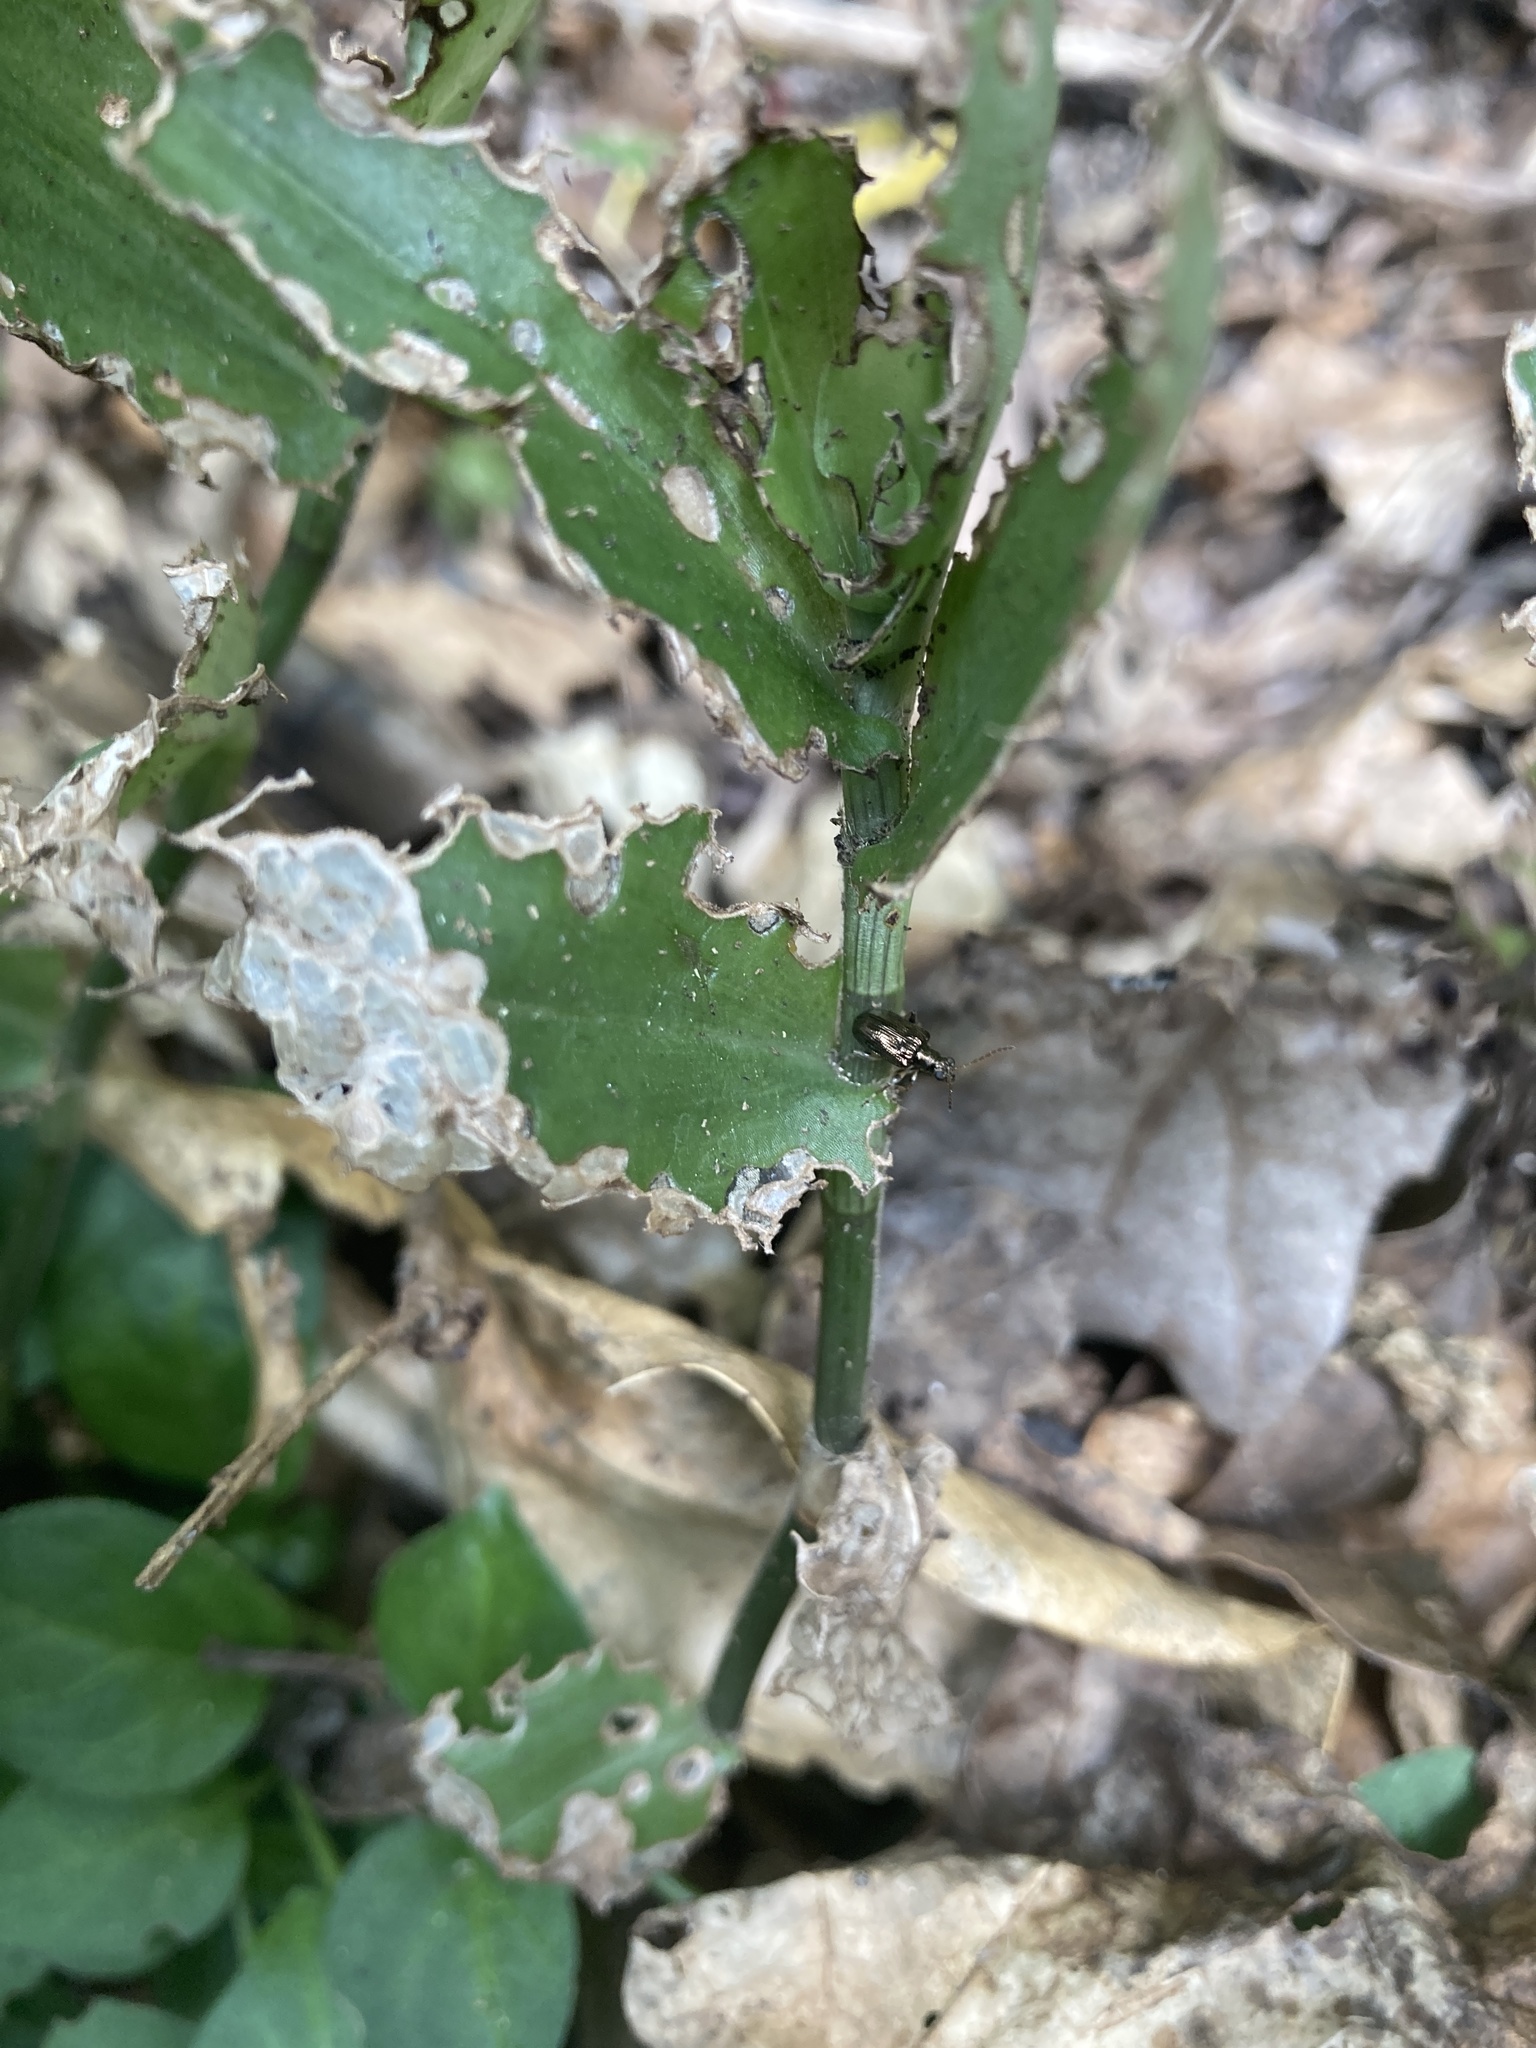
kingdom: Animalia
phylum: Arthropoda
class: Insecta
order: Coleoptera
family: Chrysomelidae
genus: Neolema
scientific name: Neolema ogloblini
